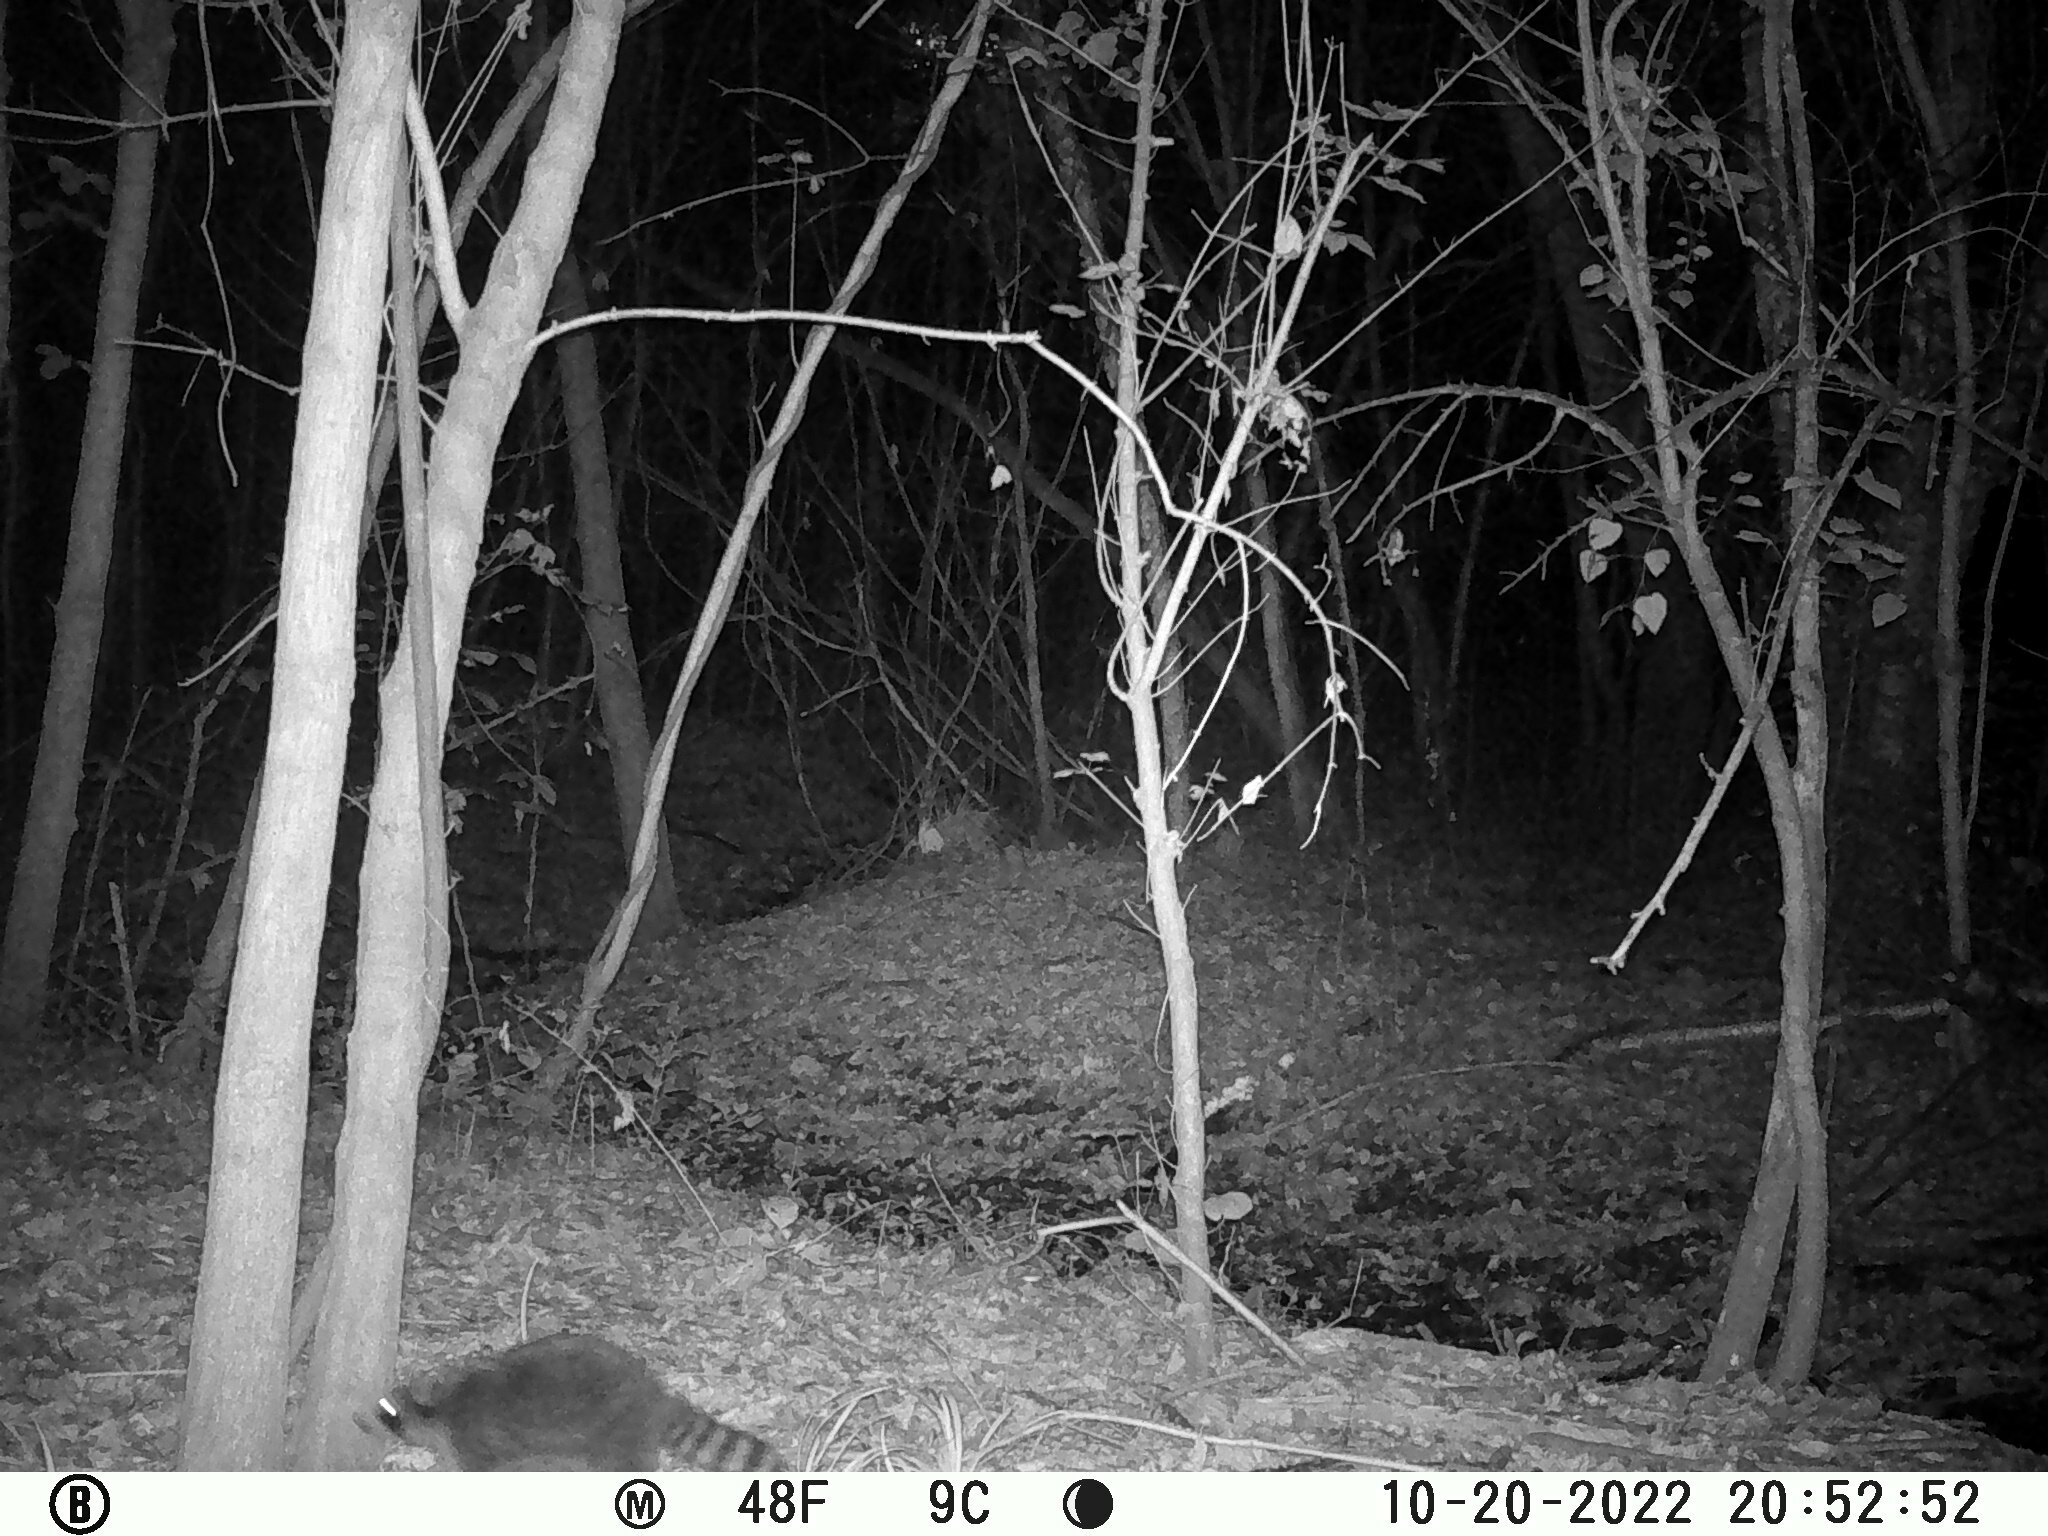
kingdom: Animalia
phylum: Chordata
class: Mammalia
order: Carnivora
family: Procyonidae
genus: Procyon
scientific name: Procyon lotor
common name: Raccoon
